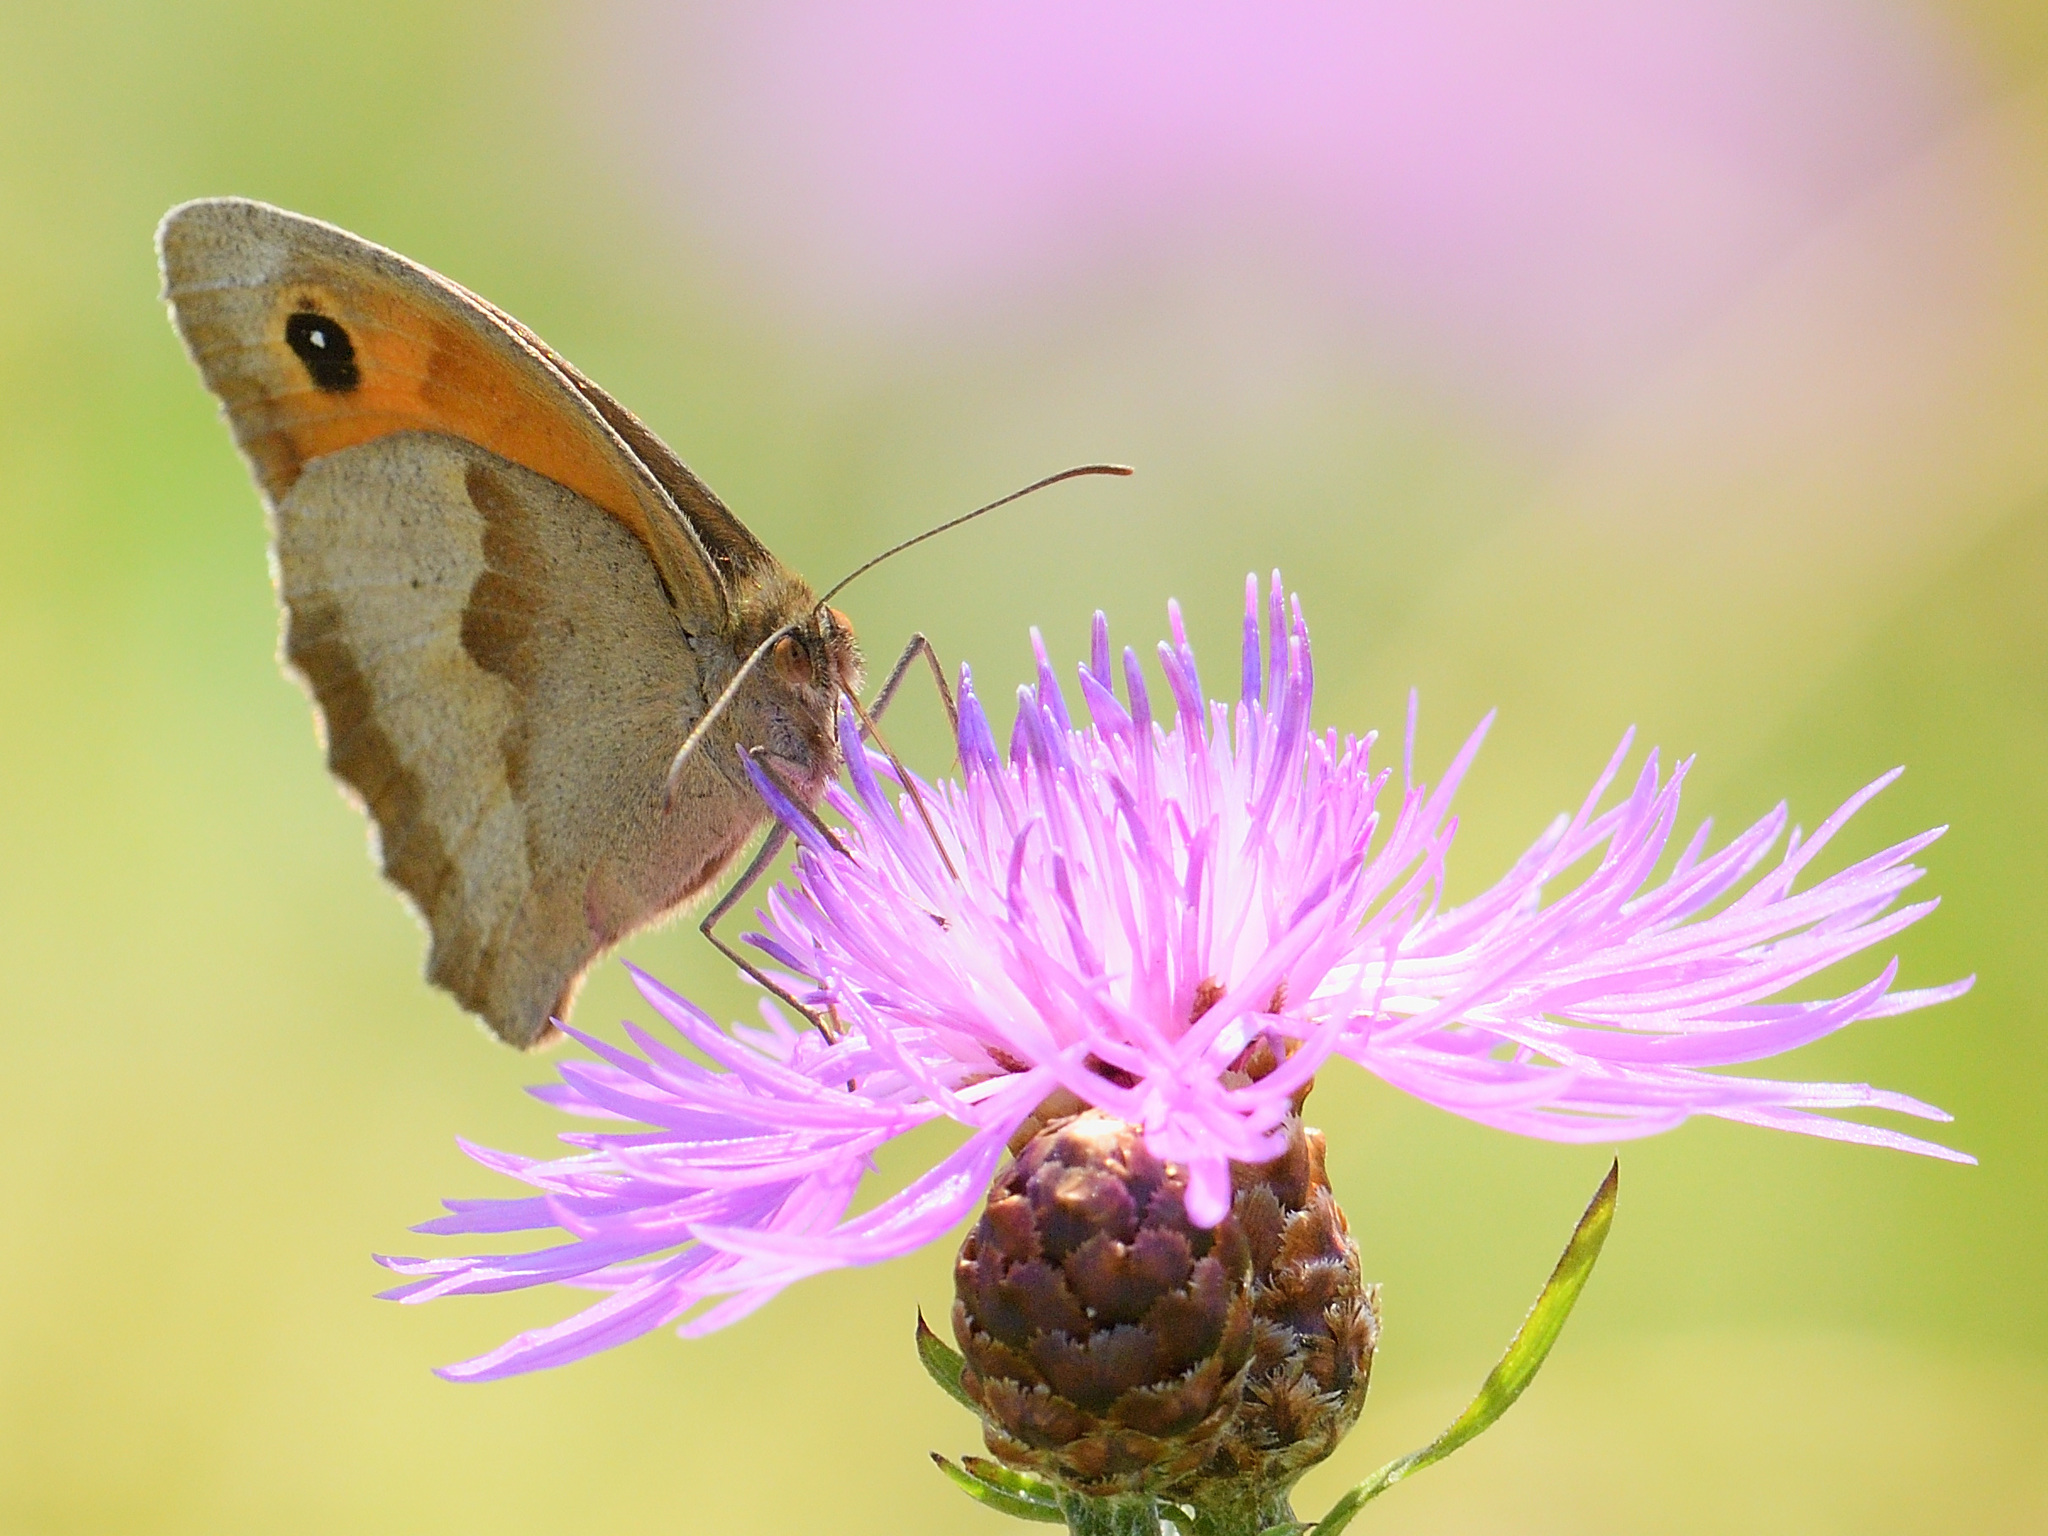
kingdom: Animalia
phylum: Arthropoda
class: Insecta
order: Lepidoptera
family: Nymphalidae
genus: Maniola
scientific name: Maniola jurtina
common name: Meadow brown
